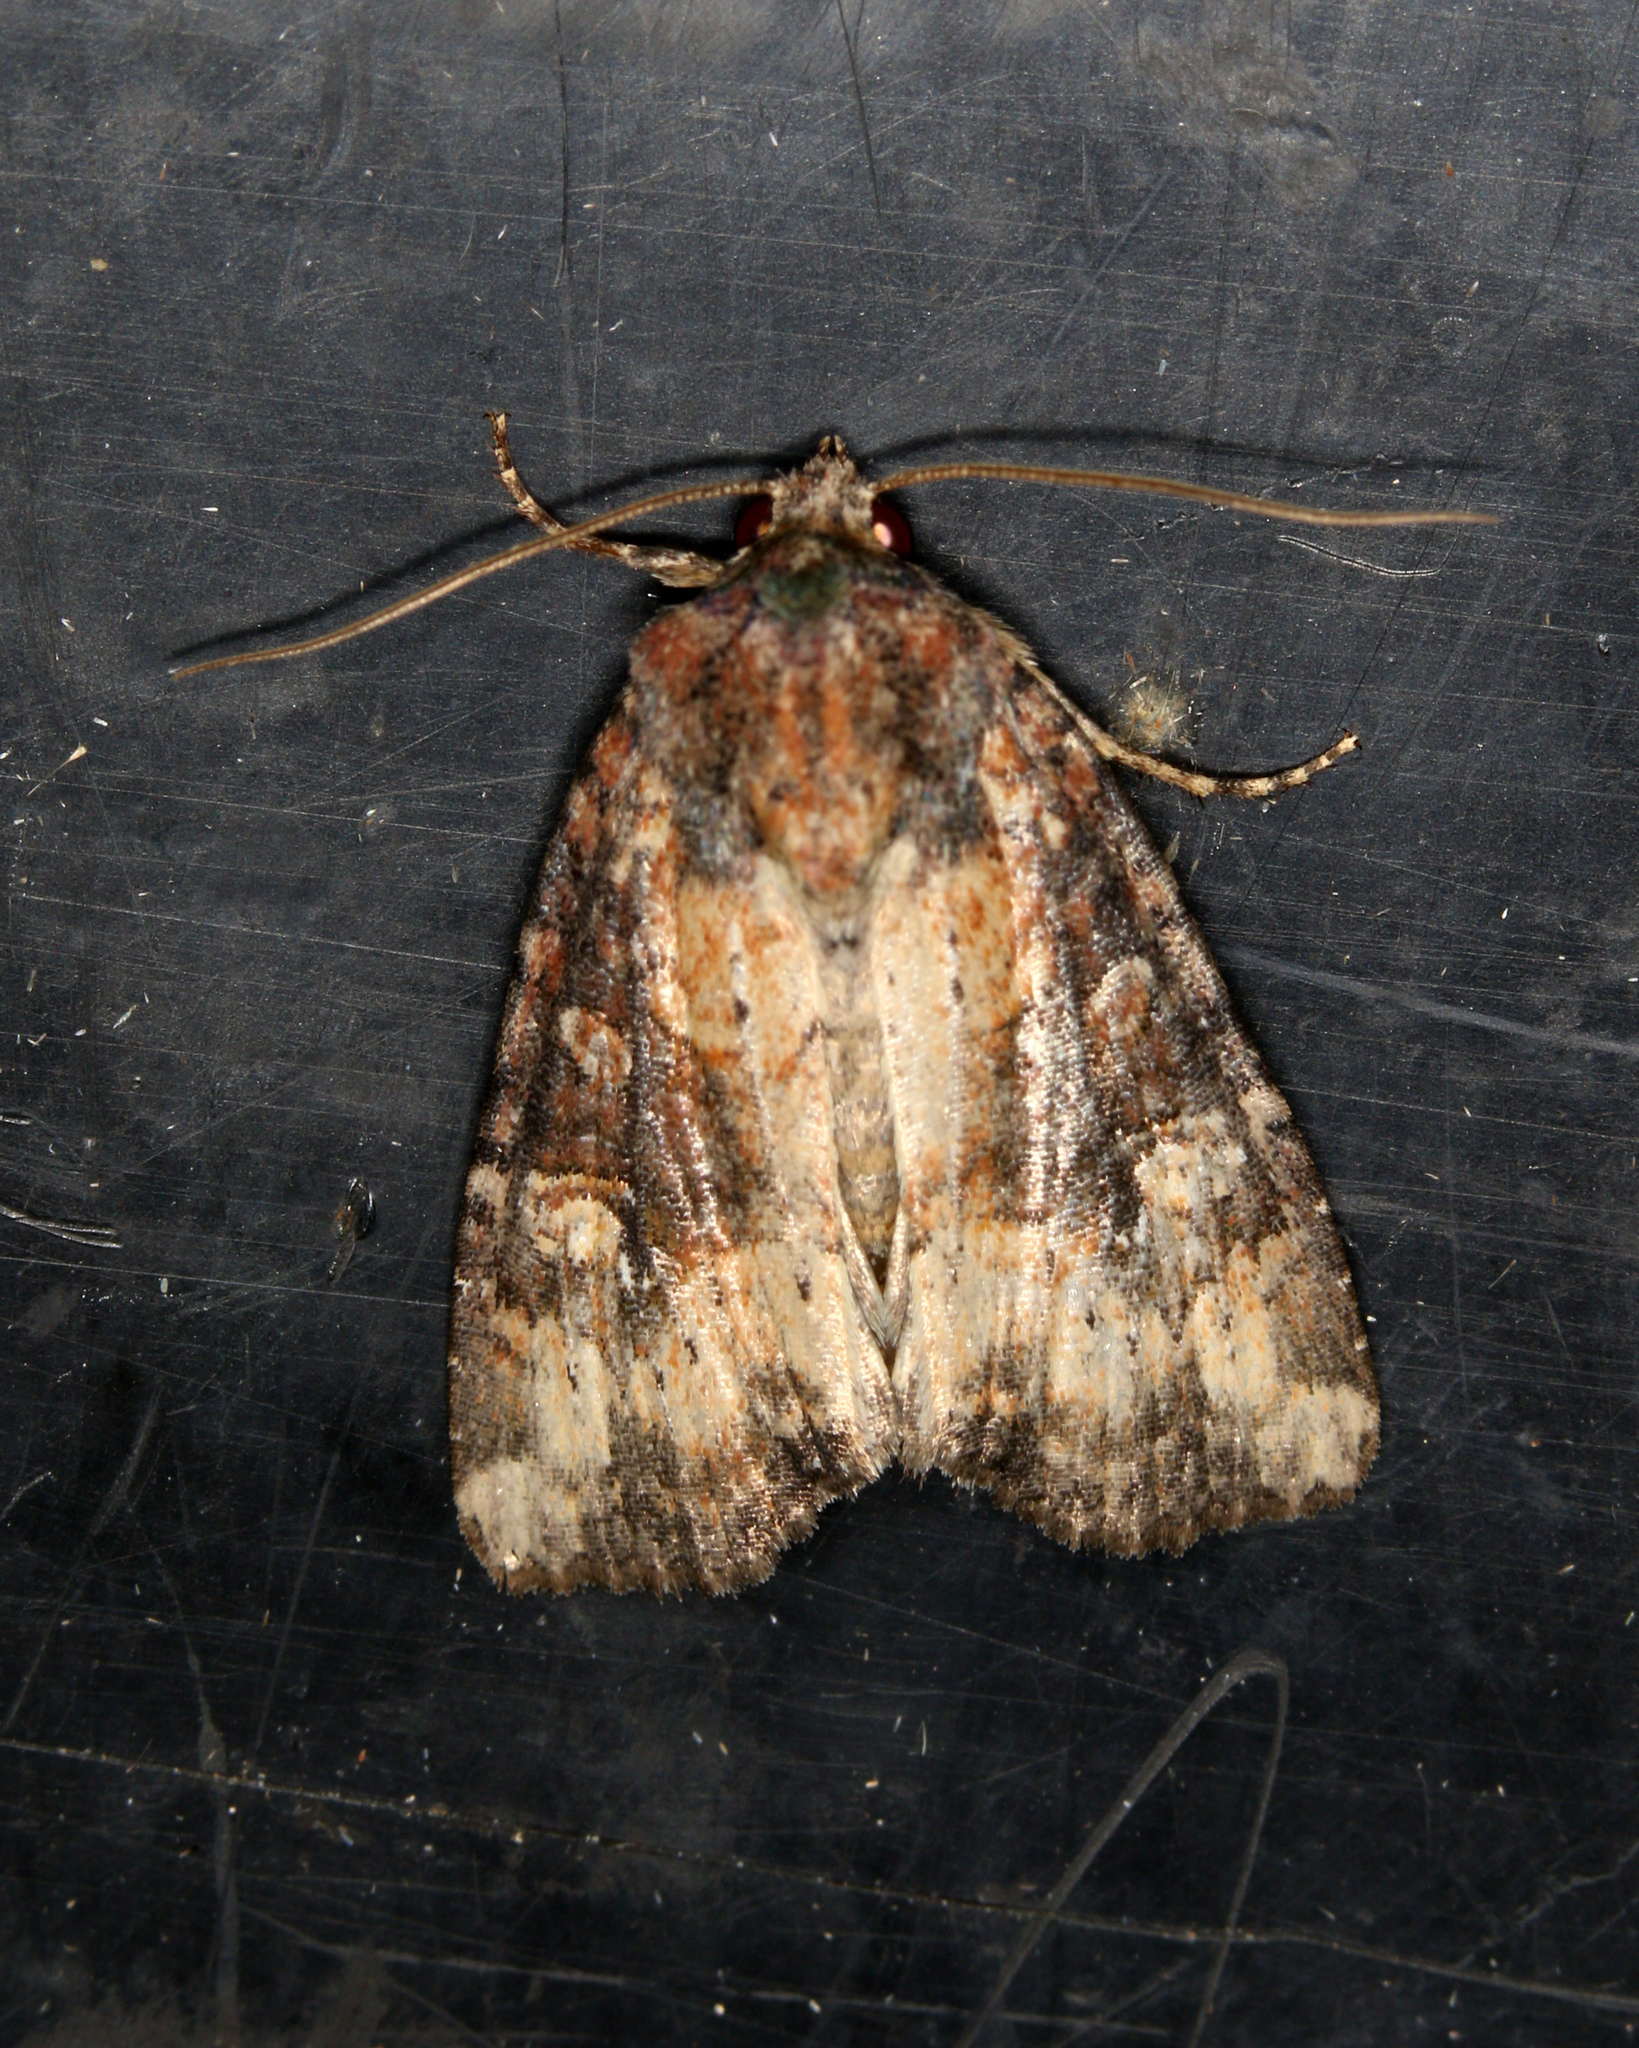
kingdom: Animalia
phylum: Arthropoda
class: Insecta
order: Lepidoptera
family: Noctuidae
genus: Mesapamea
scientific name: Mesapamea fractilinea
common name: Broken-lined brocade moth
